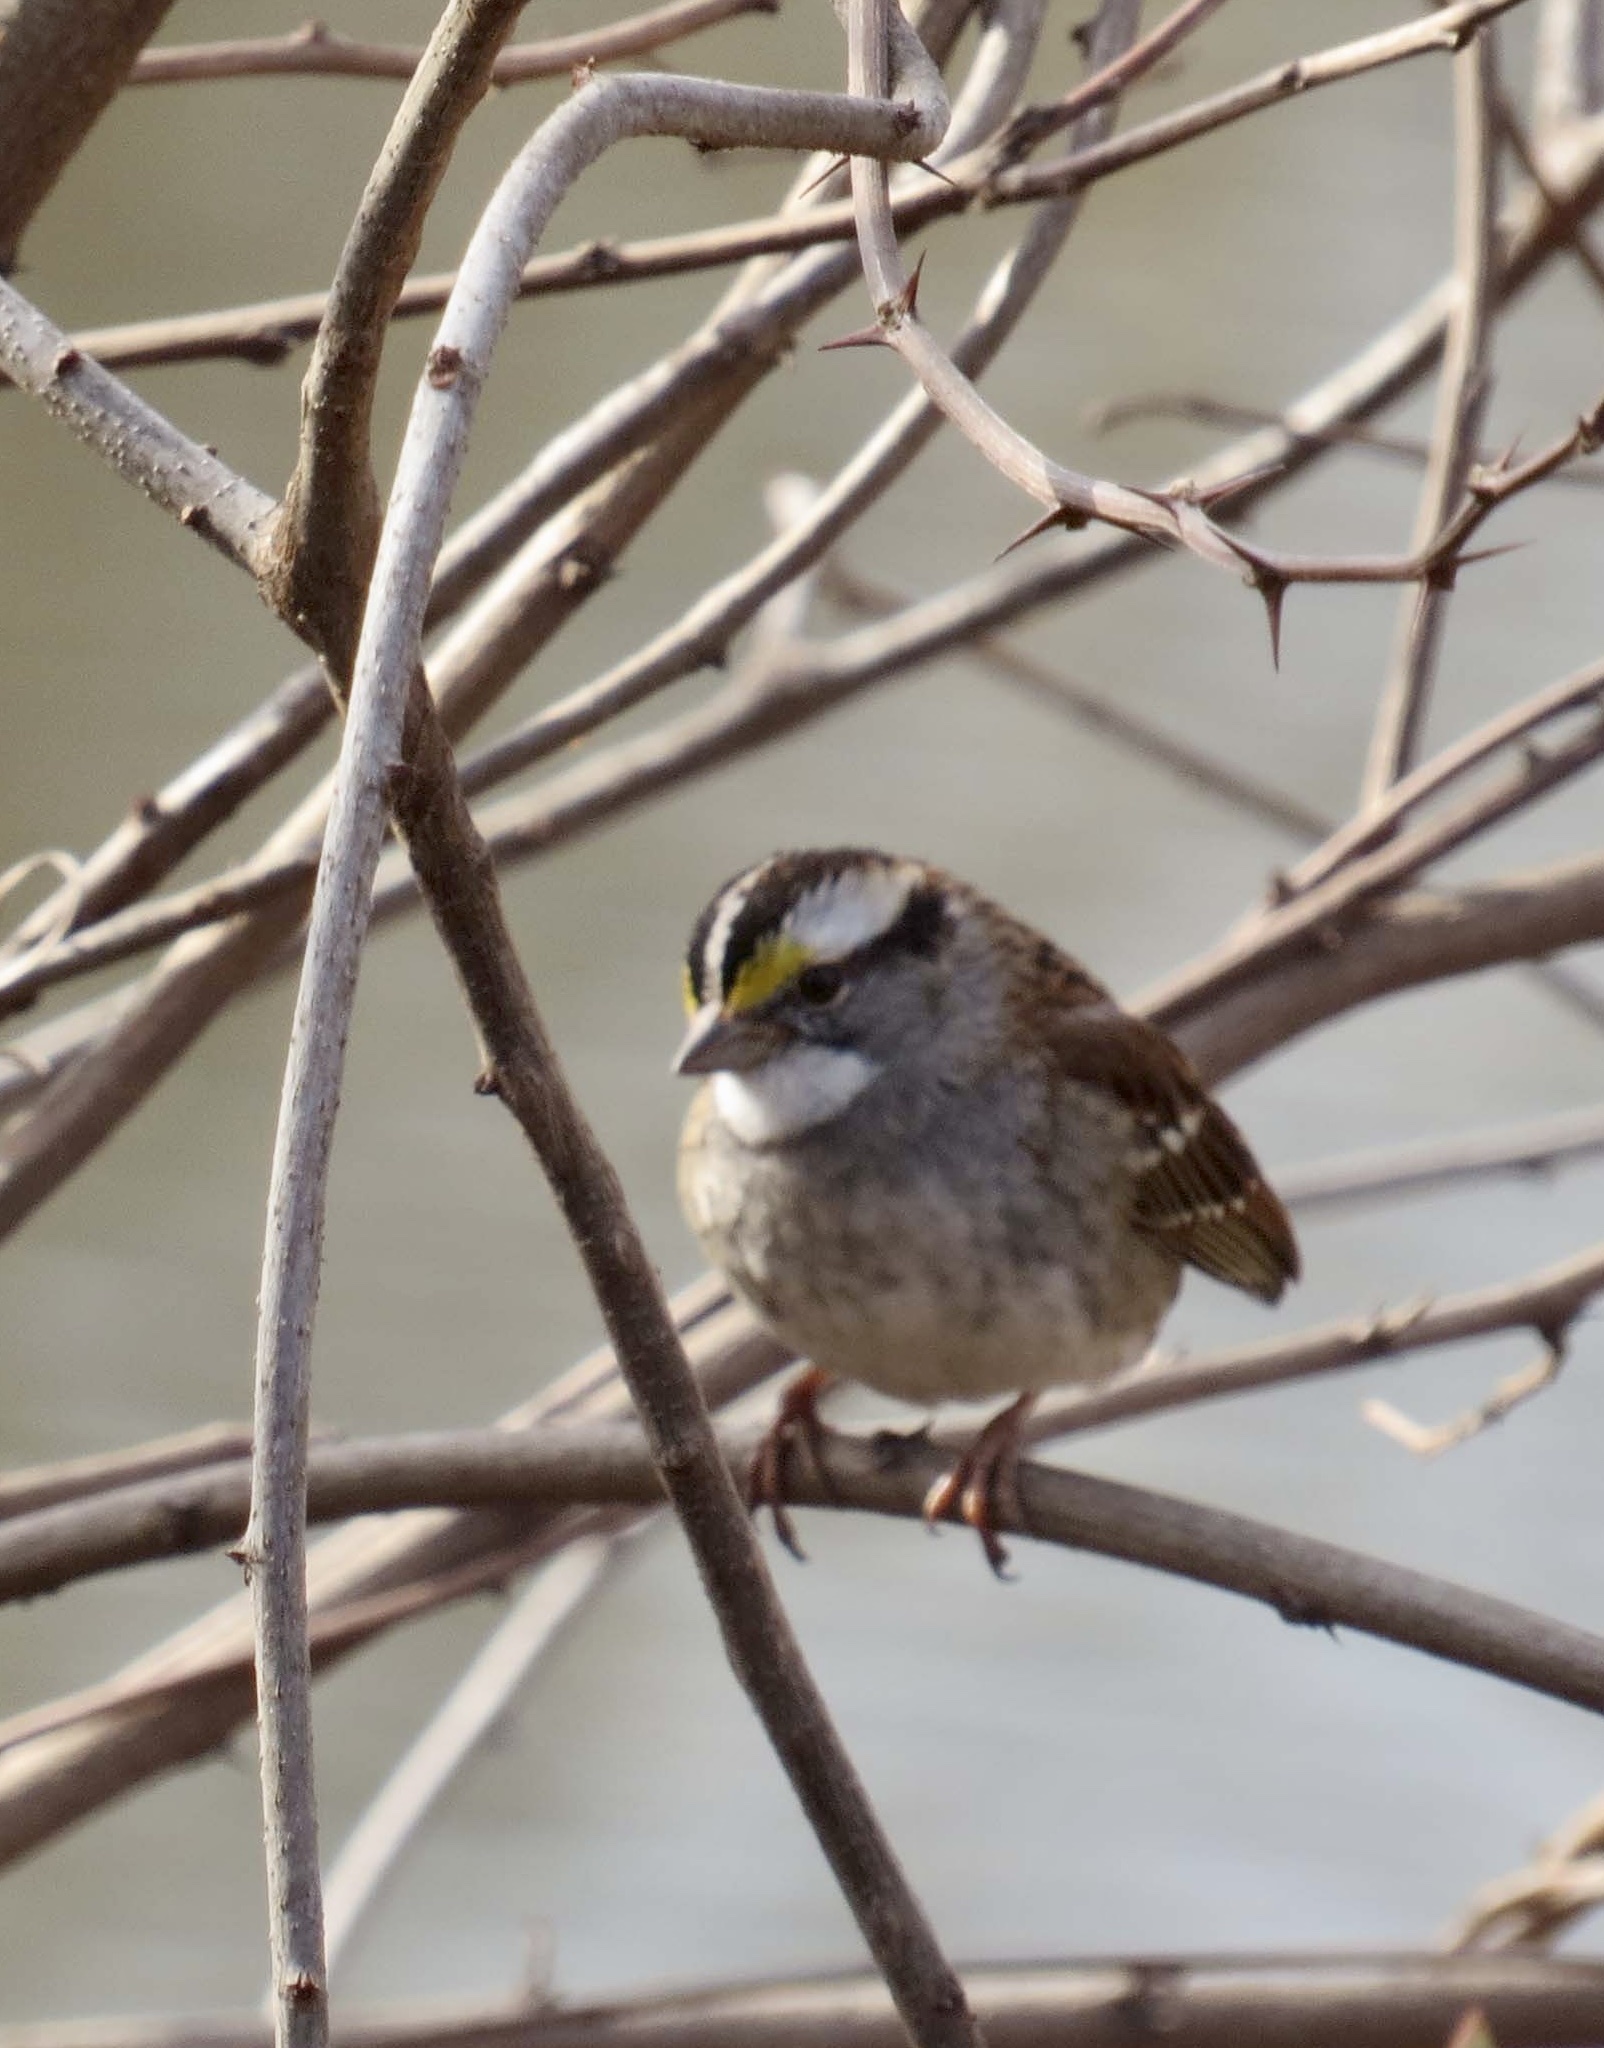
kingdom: Animalia
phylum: Chordata
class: Aves
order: Passeriformes
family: Passerellidae
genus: Zonotrichia
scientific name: Zonotrichia albicollis
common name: White-throated sparrow
